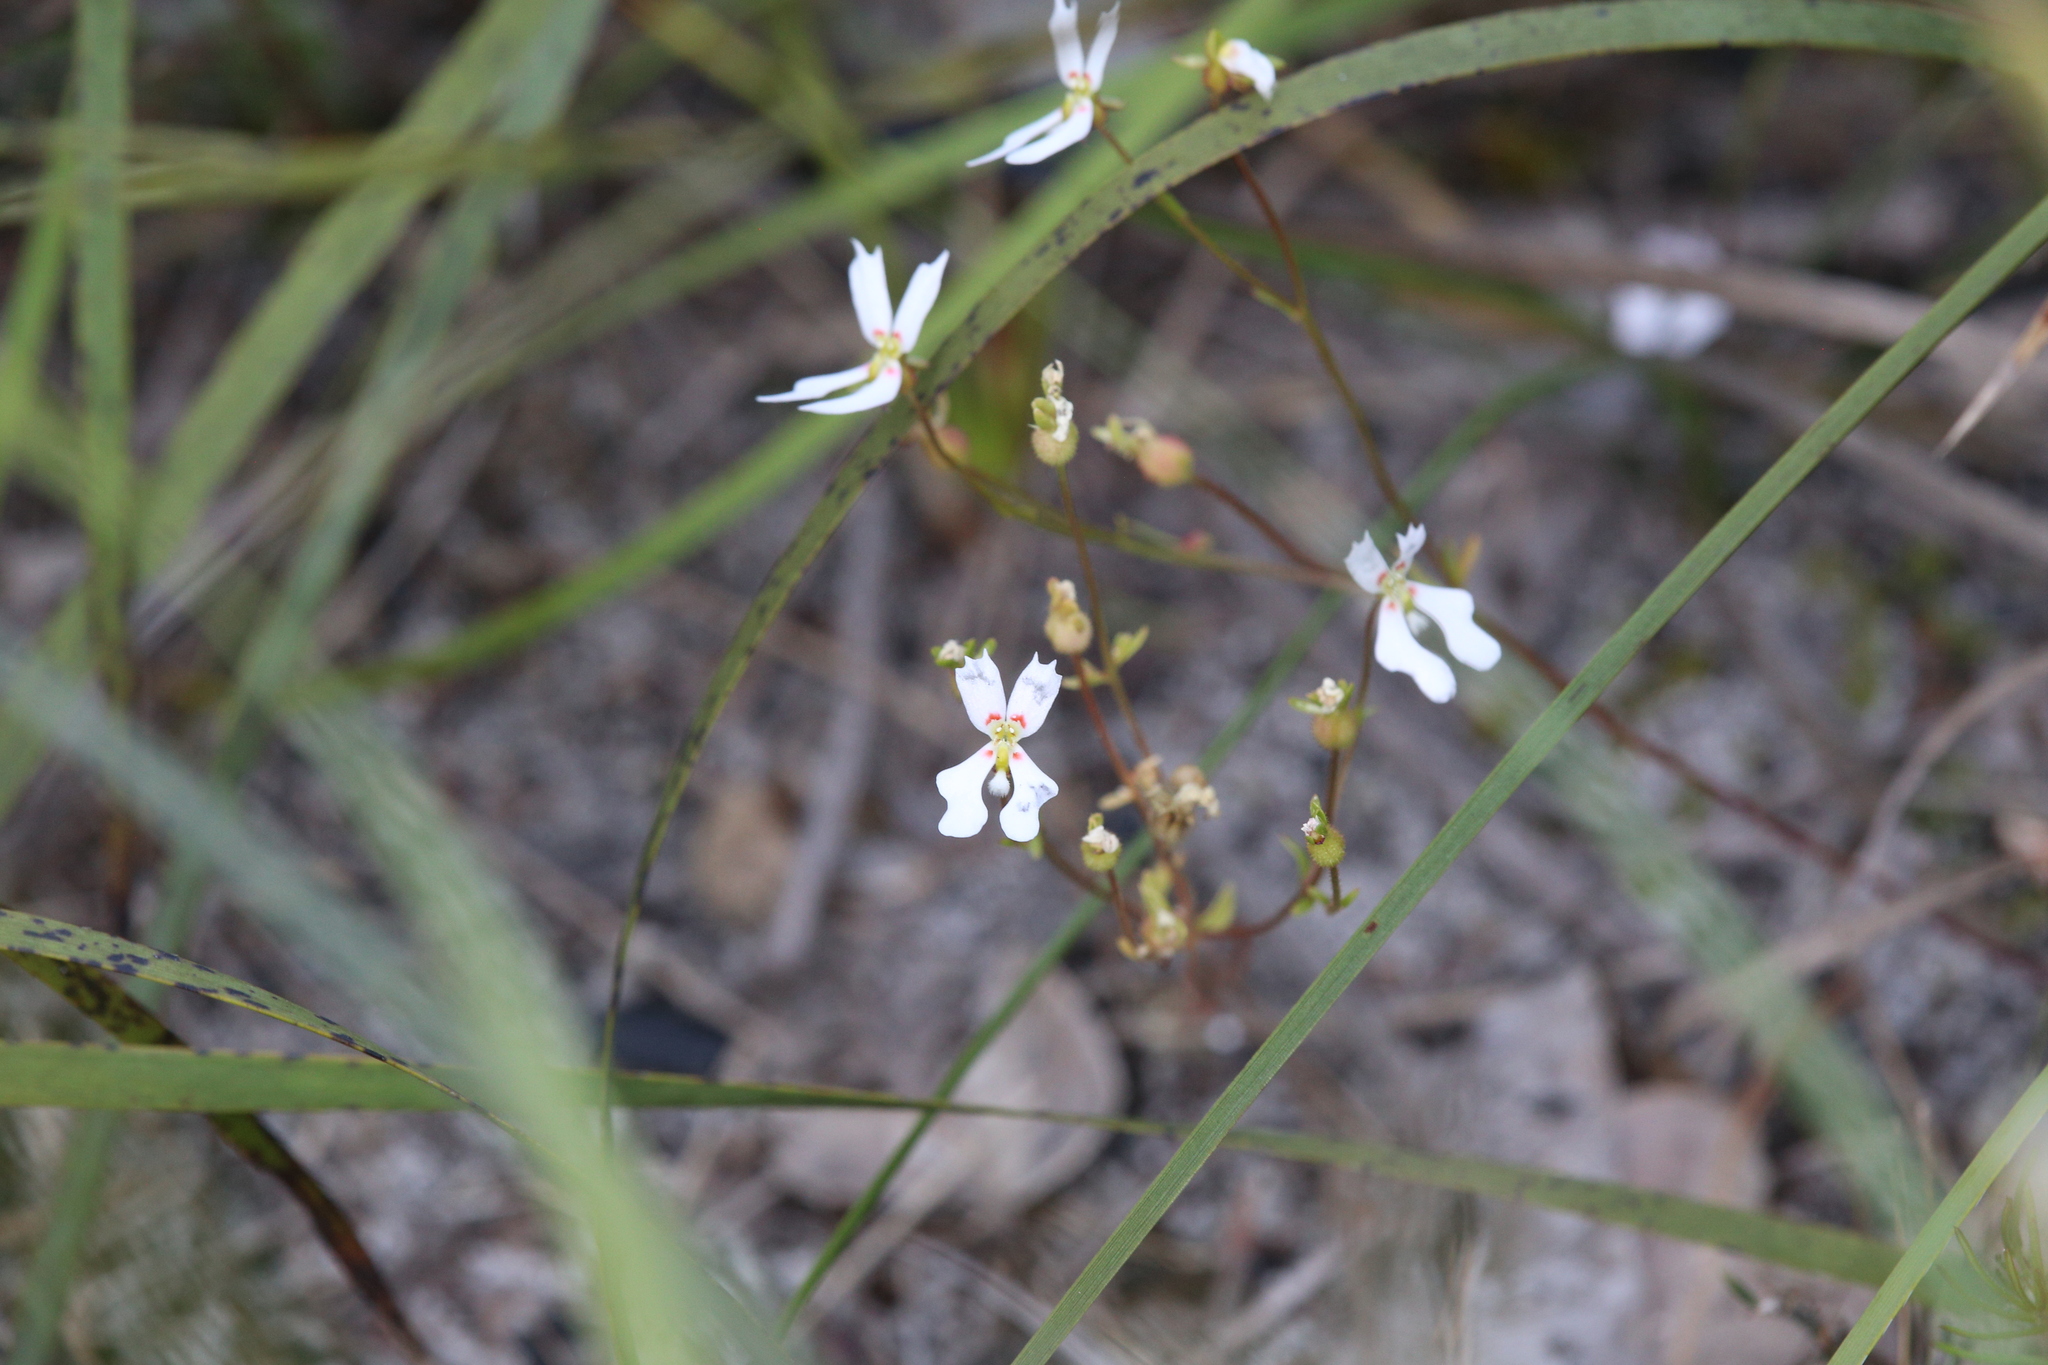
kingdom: Plantae
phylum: Tracheophyta
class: Magnoliopsida
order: Asterales
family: Stylidiaceae
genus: Stylidium
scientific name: Stylidium androsaceum
